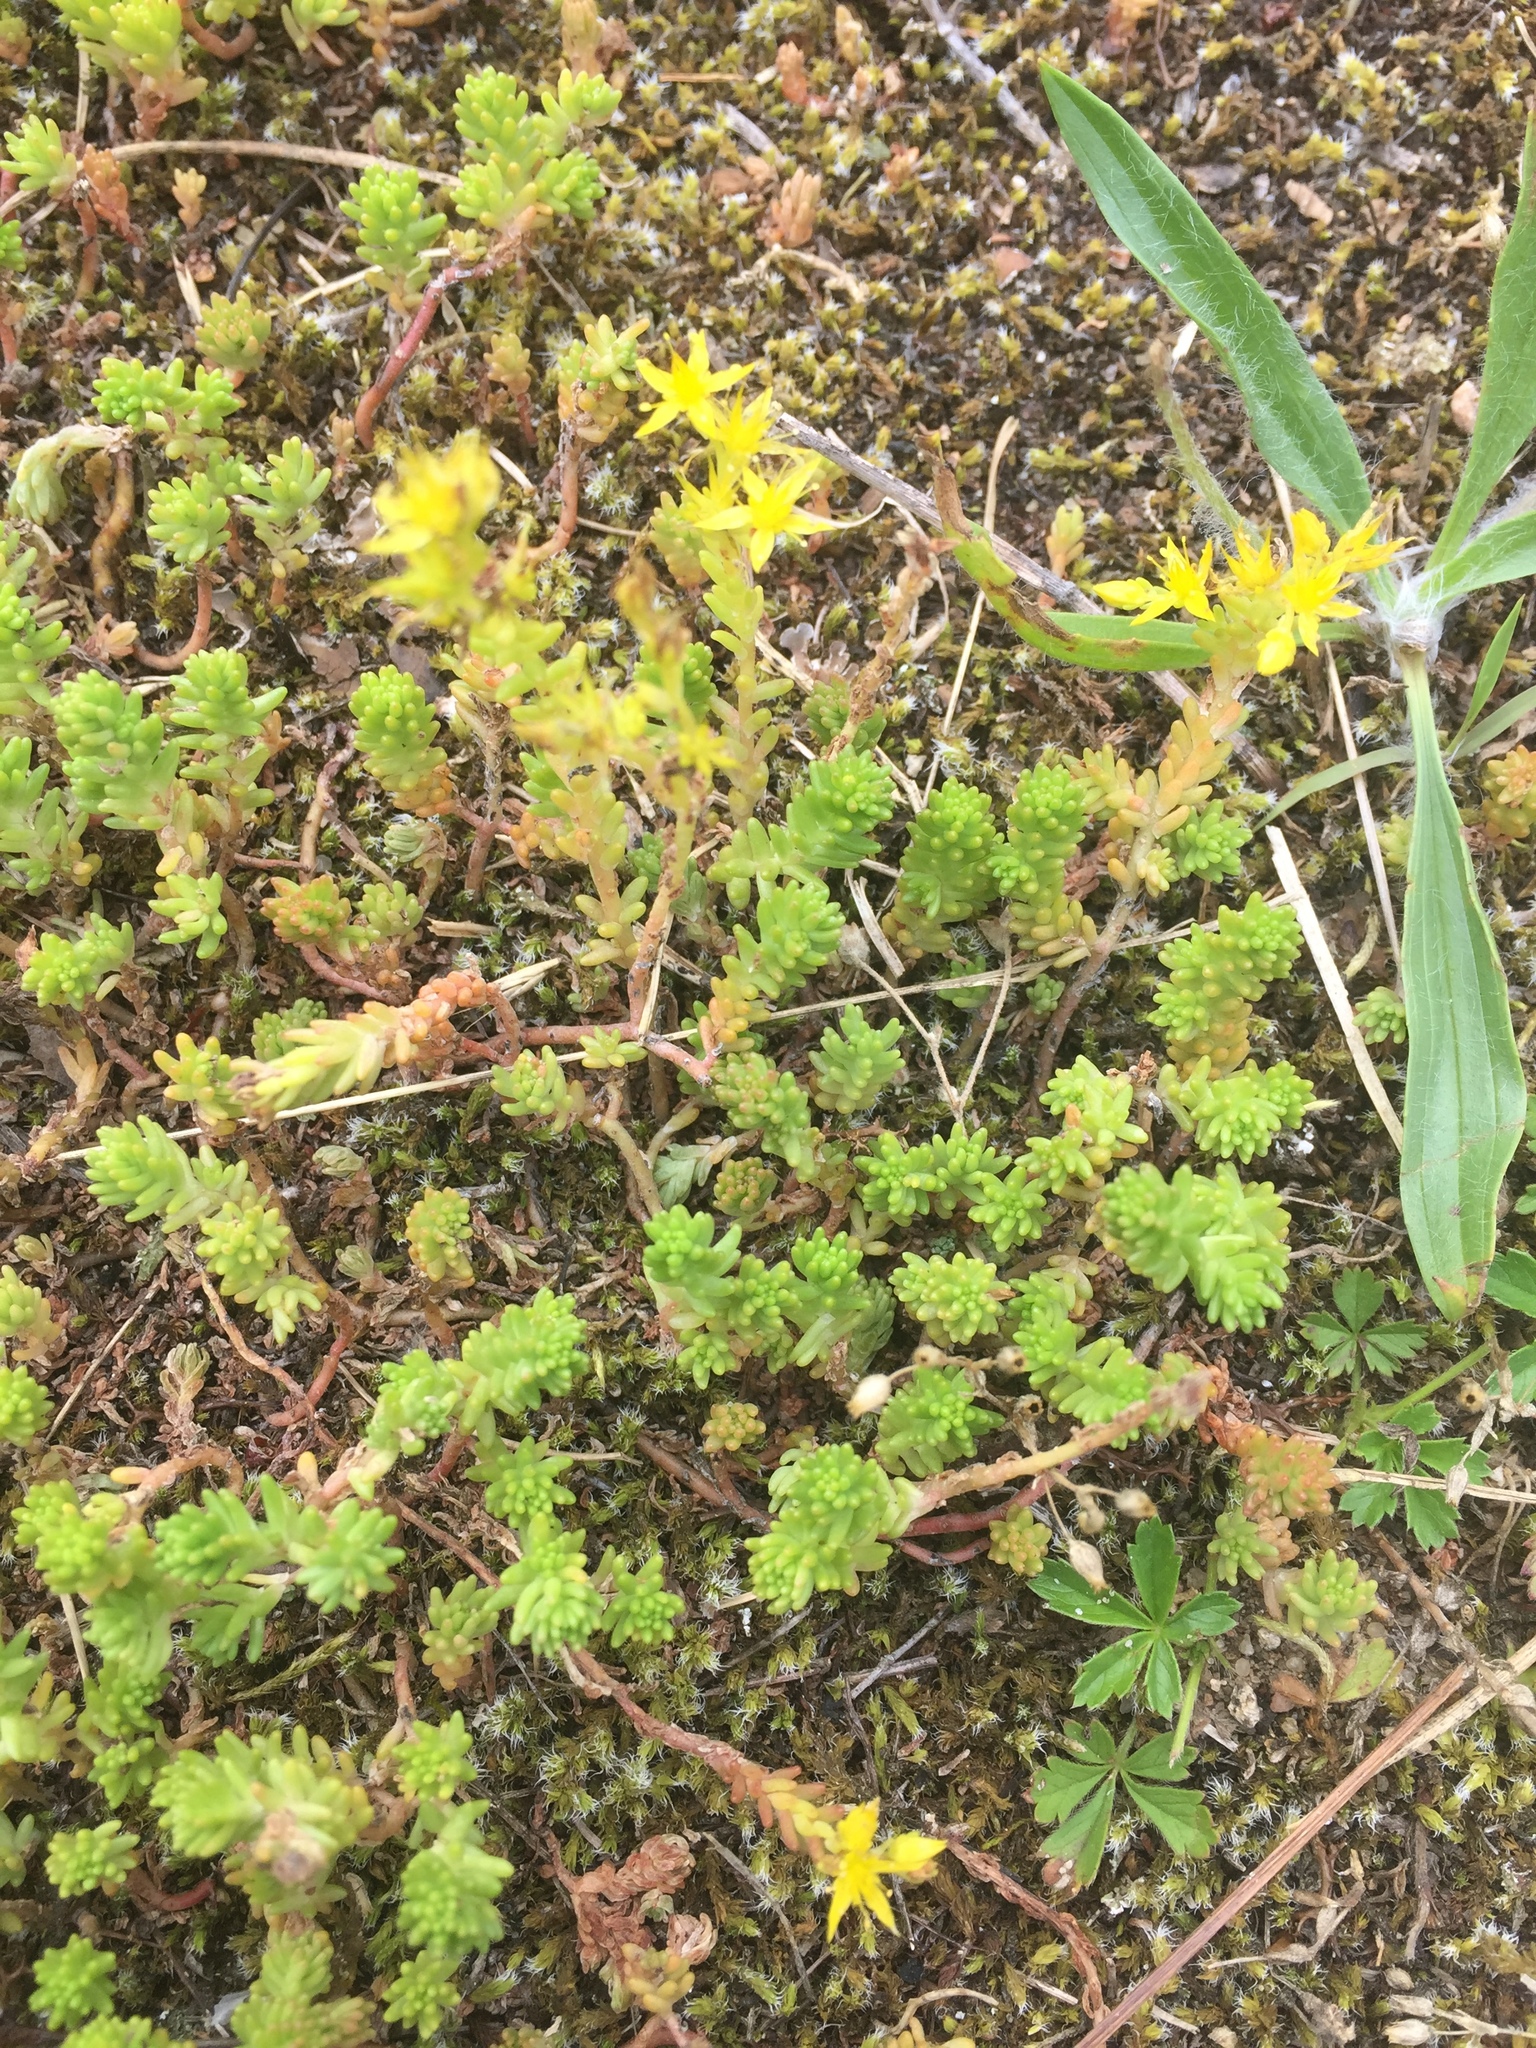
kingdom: Plantae
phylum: Tracheophyta
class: Magnoliopsida
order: Saxifragales
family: Crassulaceae
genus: Sedum
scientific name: Sedum sexangulare
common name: Tasteless stonecrop
